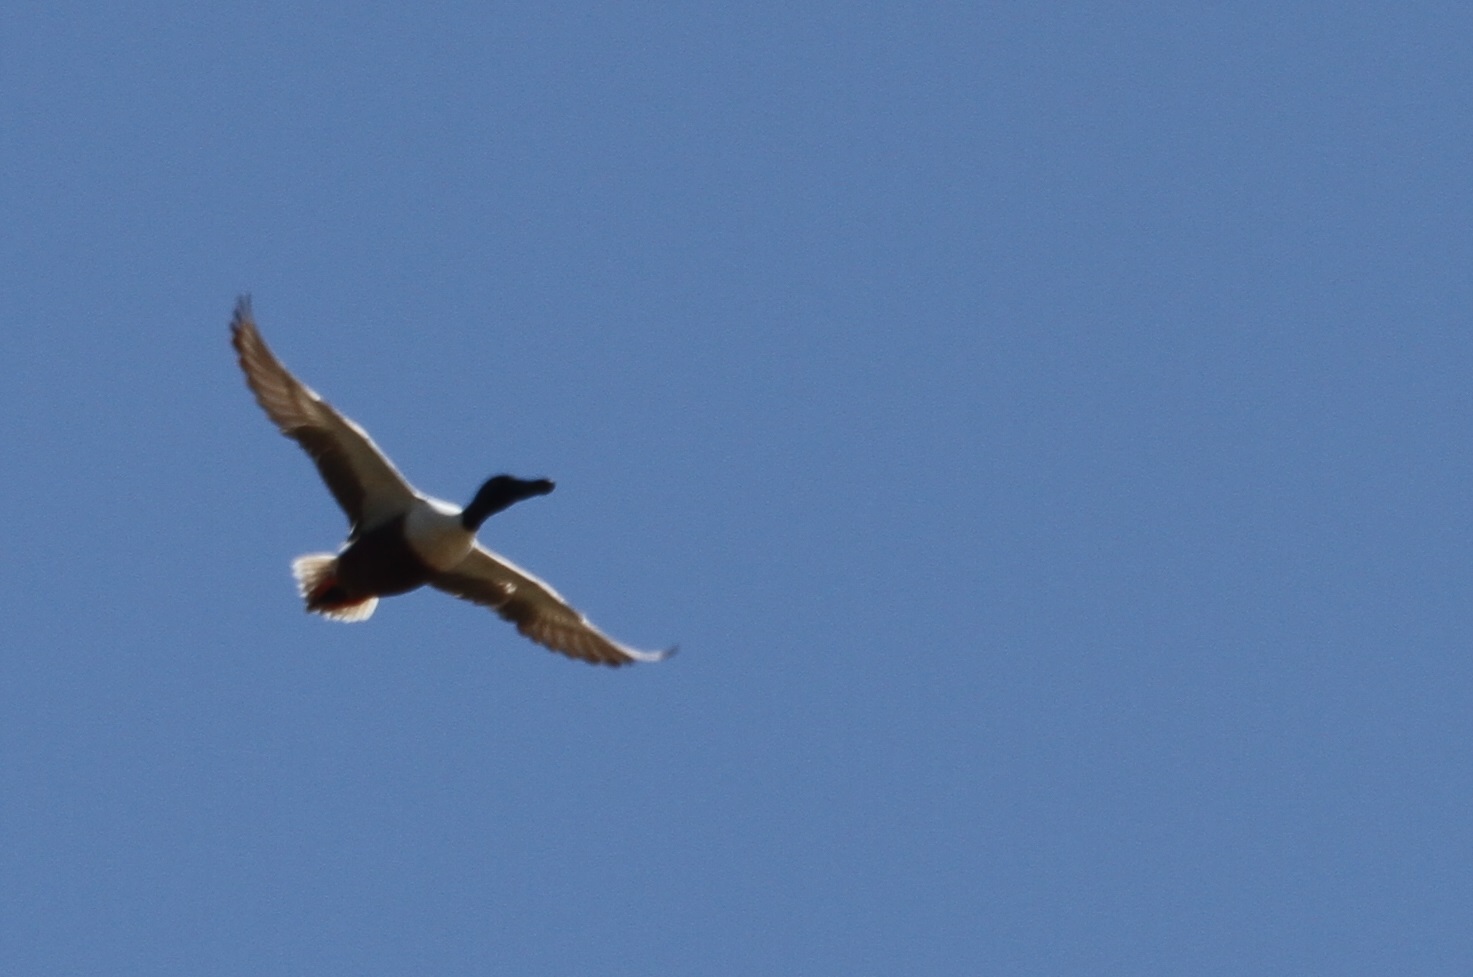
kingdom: Animalia
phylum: Chordata
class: Aves
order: Anseriformes
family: Anatidae
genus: Spatula
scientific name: Spatula clypeata
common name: Northern shoveler
